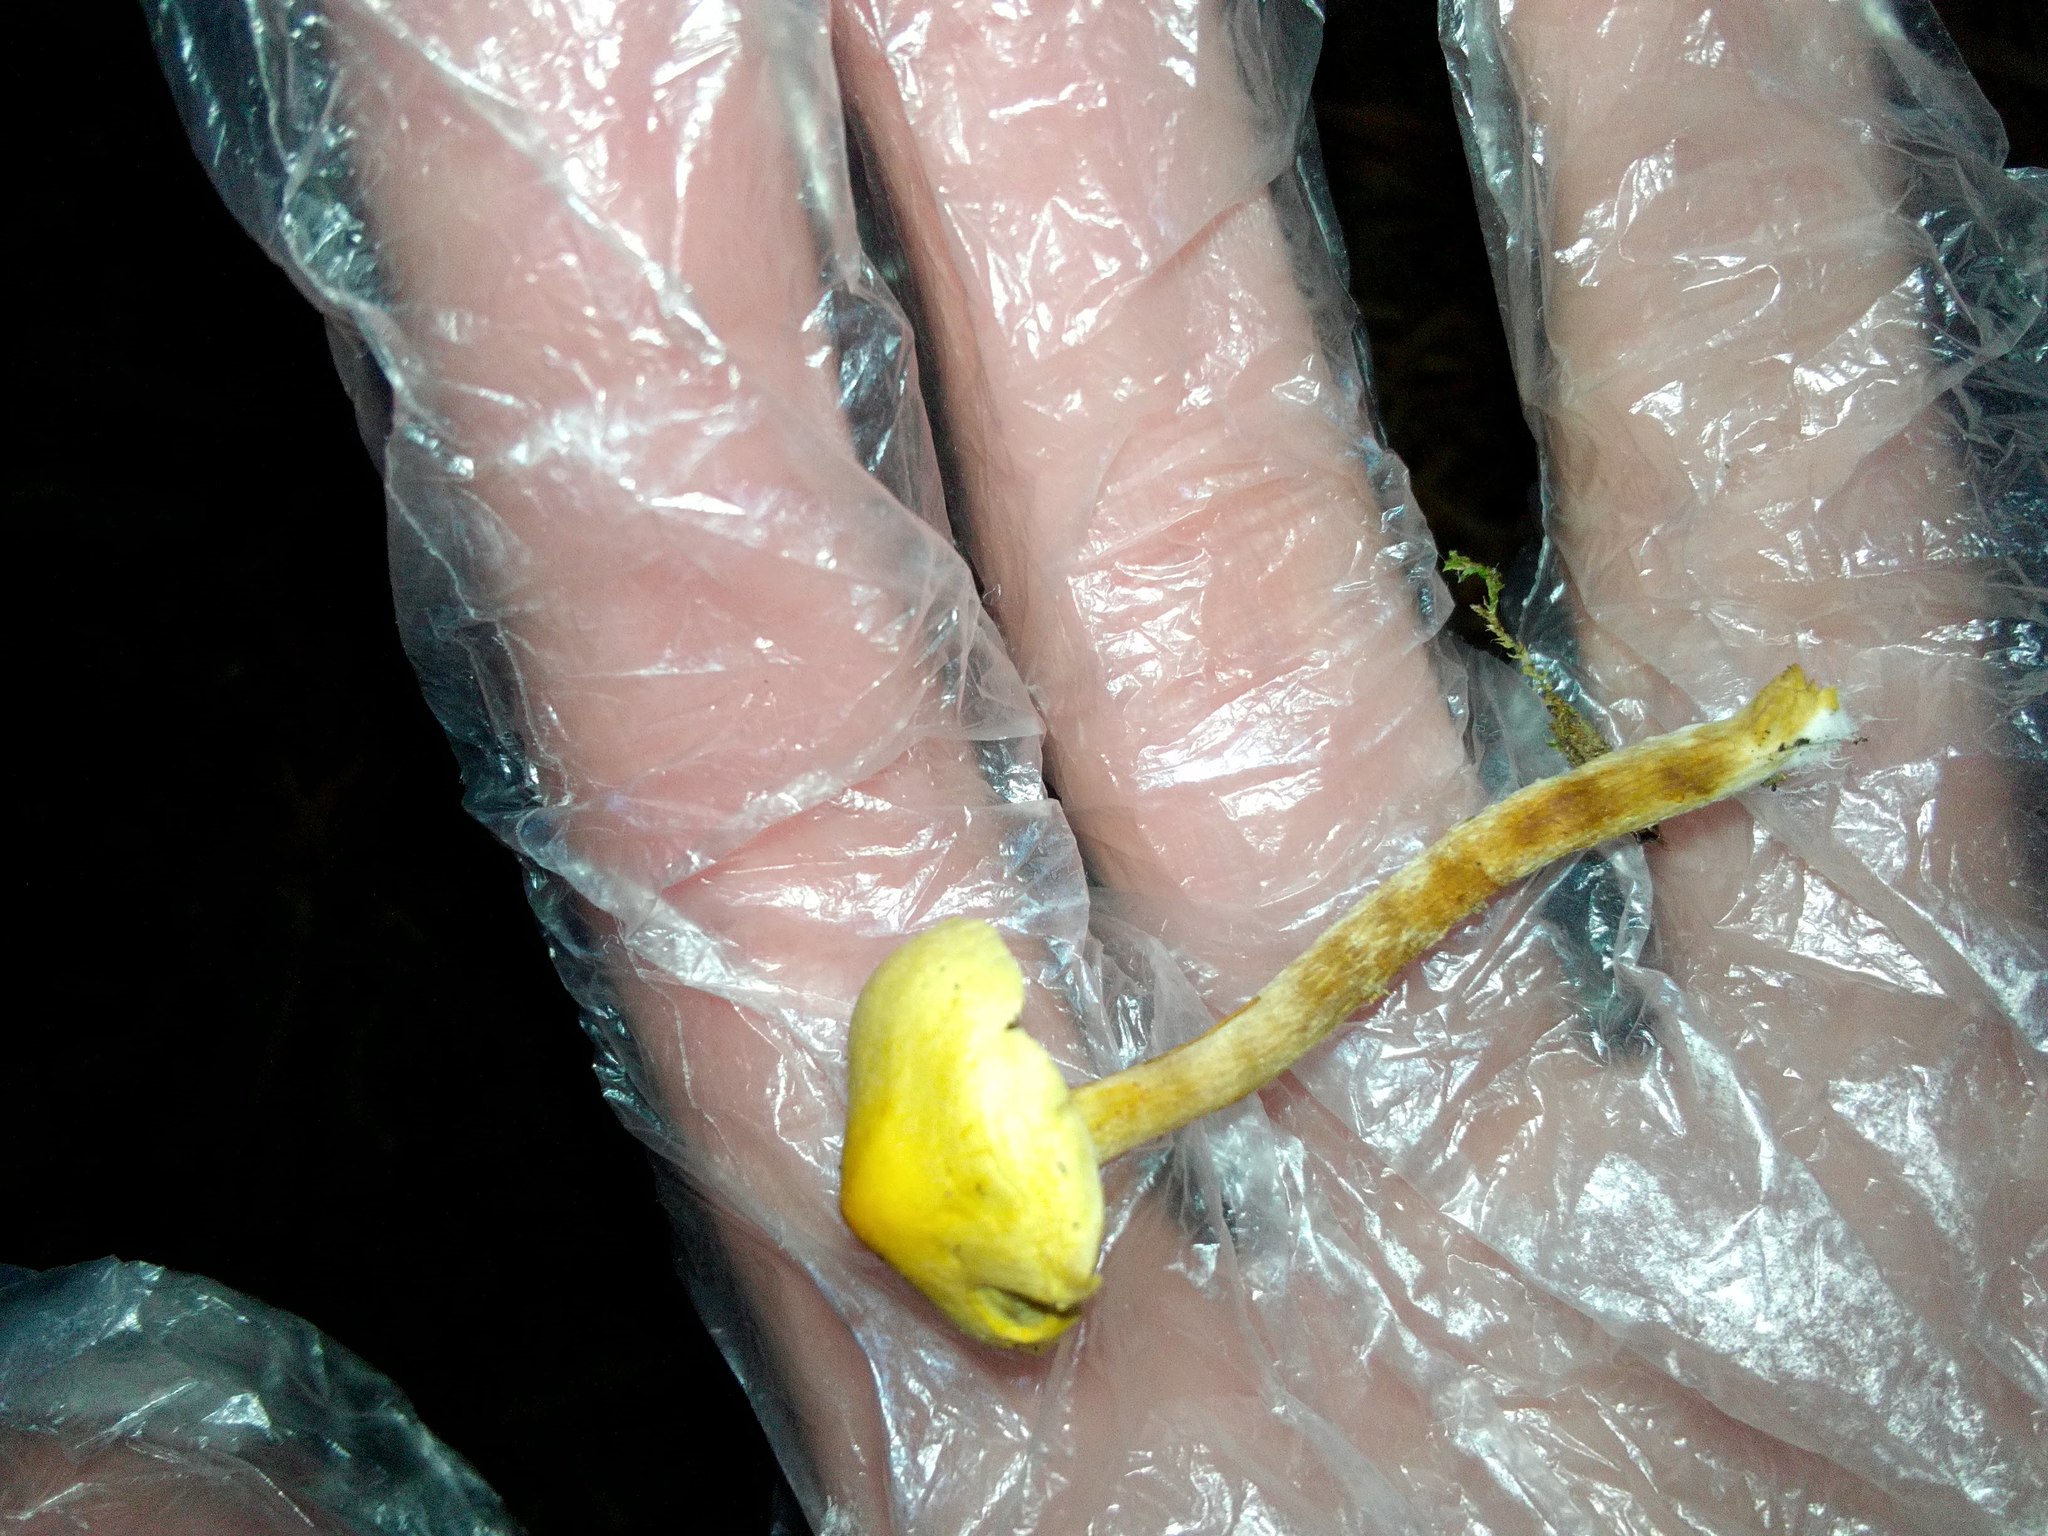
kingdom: Fungi
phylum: Basidiomycota
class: Agaricomycetes
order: Agaricales
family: Strophariaceae
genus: Hypholoma
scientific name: Hypholoma radicosum
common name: Rooting brownie
